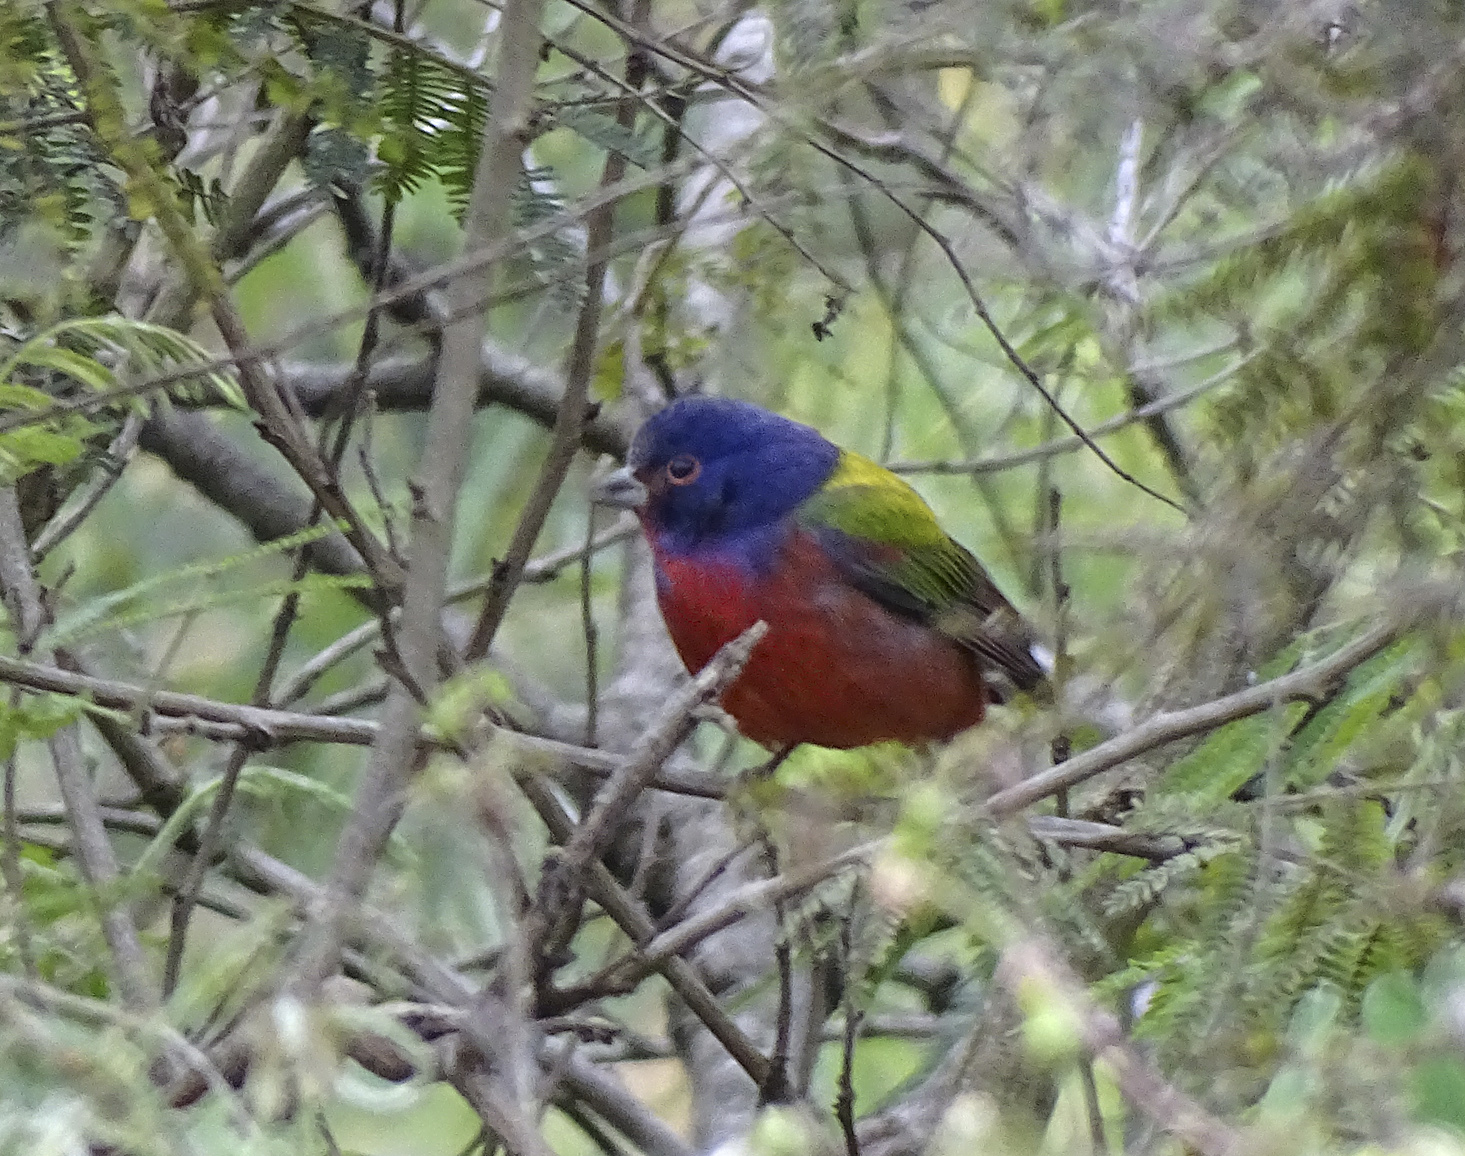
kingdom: Animalia
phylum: Chordata
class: Aves
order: Passeriformes
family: Cardinalidae
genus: Passerina
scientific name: Passerina ciris
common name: Painted bunting
